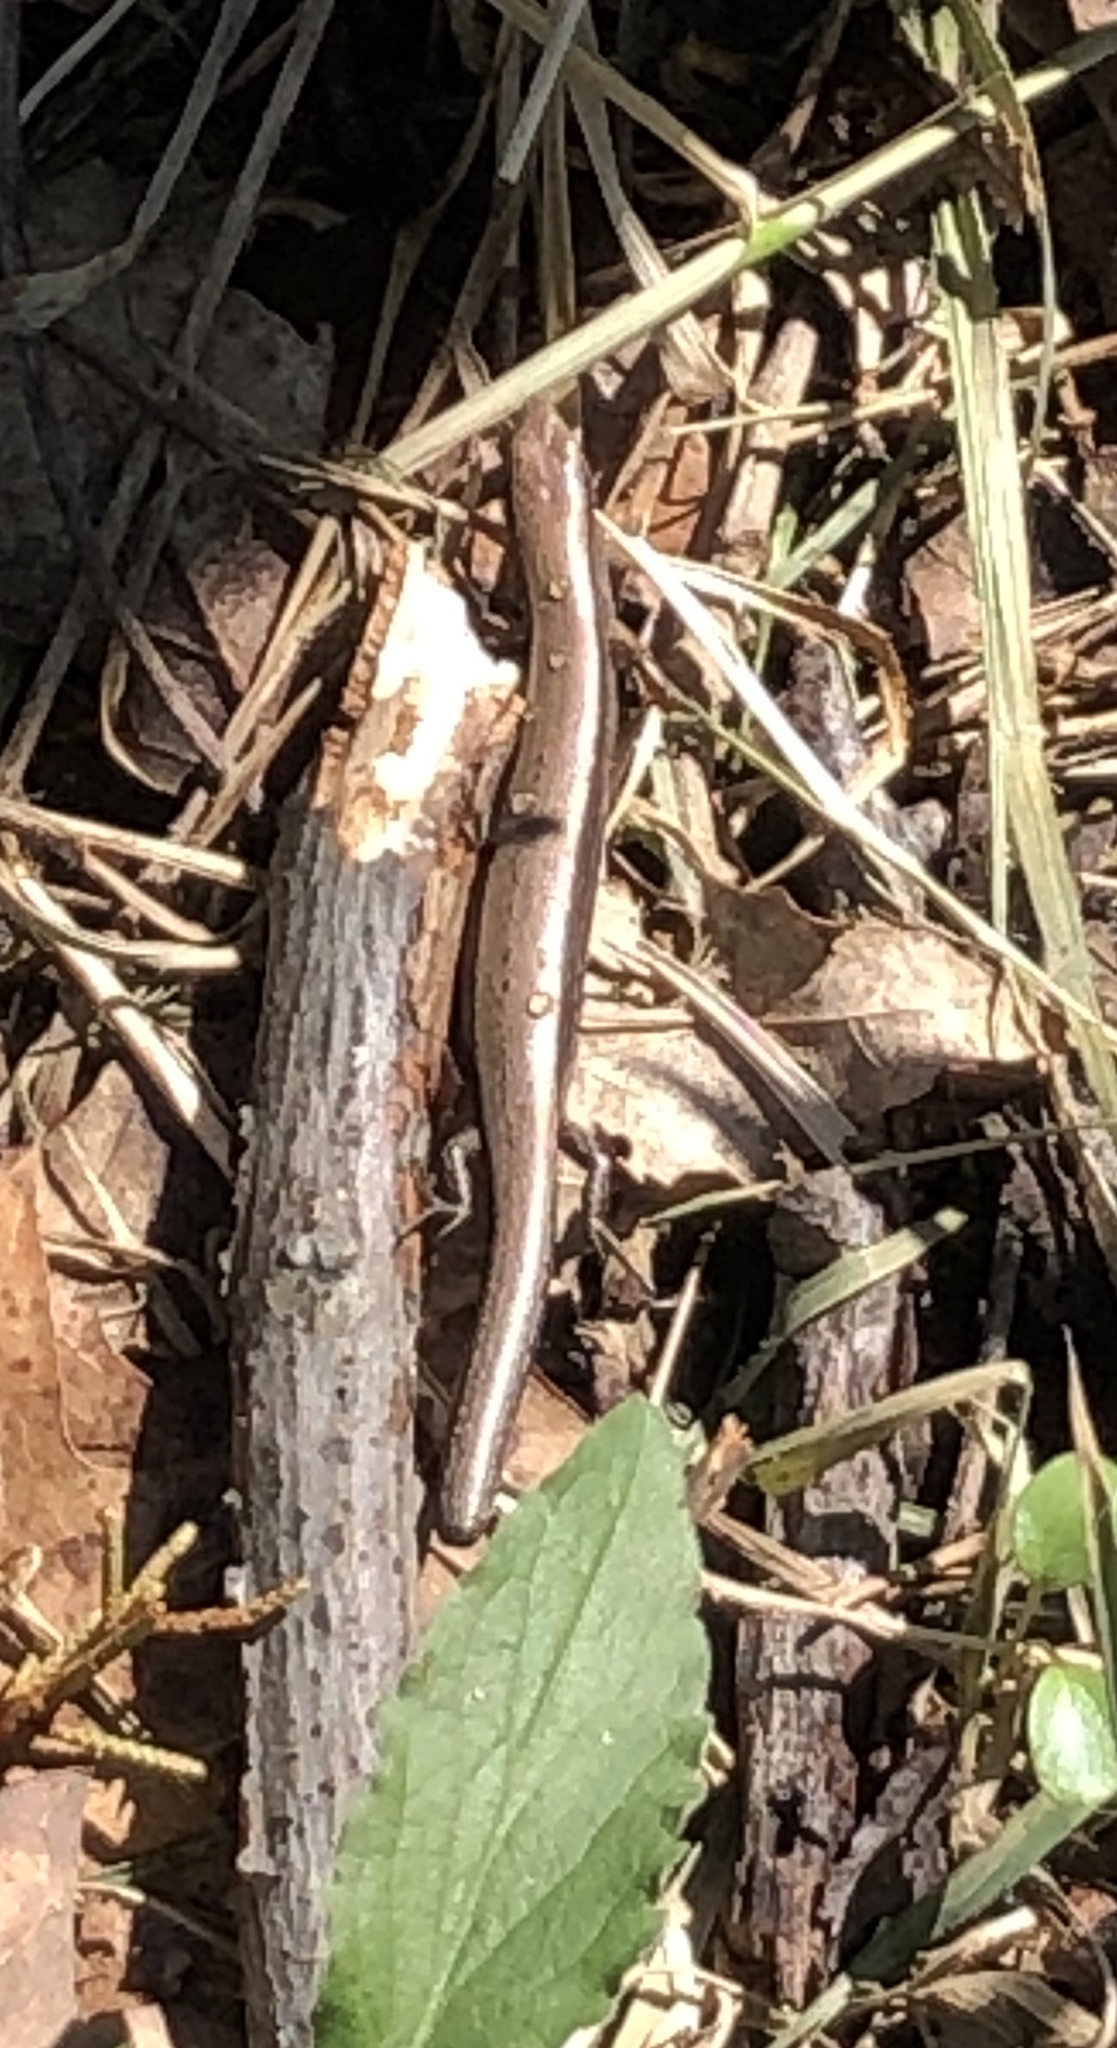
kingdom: Animalia
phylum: Chordata
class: Squamata
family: Scincidae
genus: Scincella
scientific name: Scincella lateralis
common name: Ground skink
